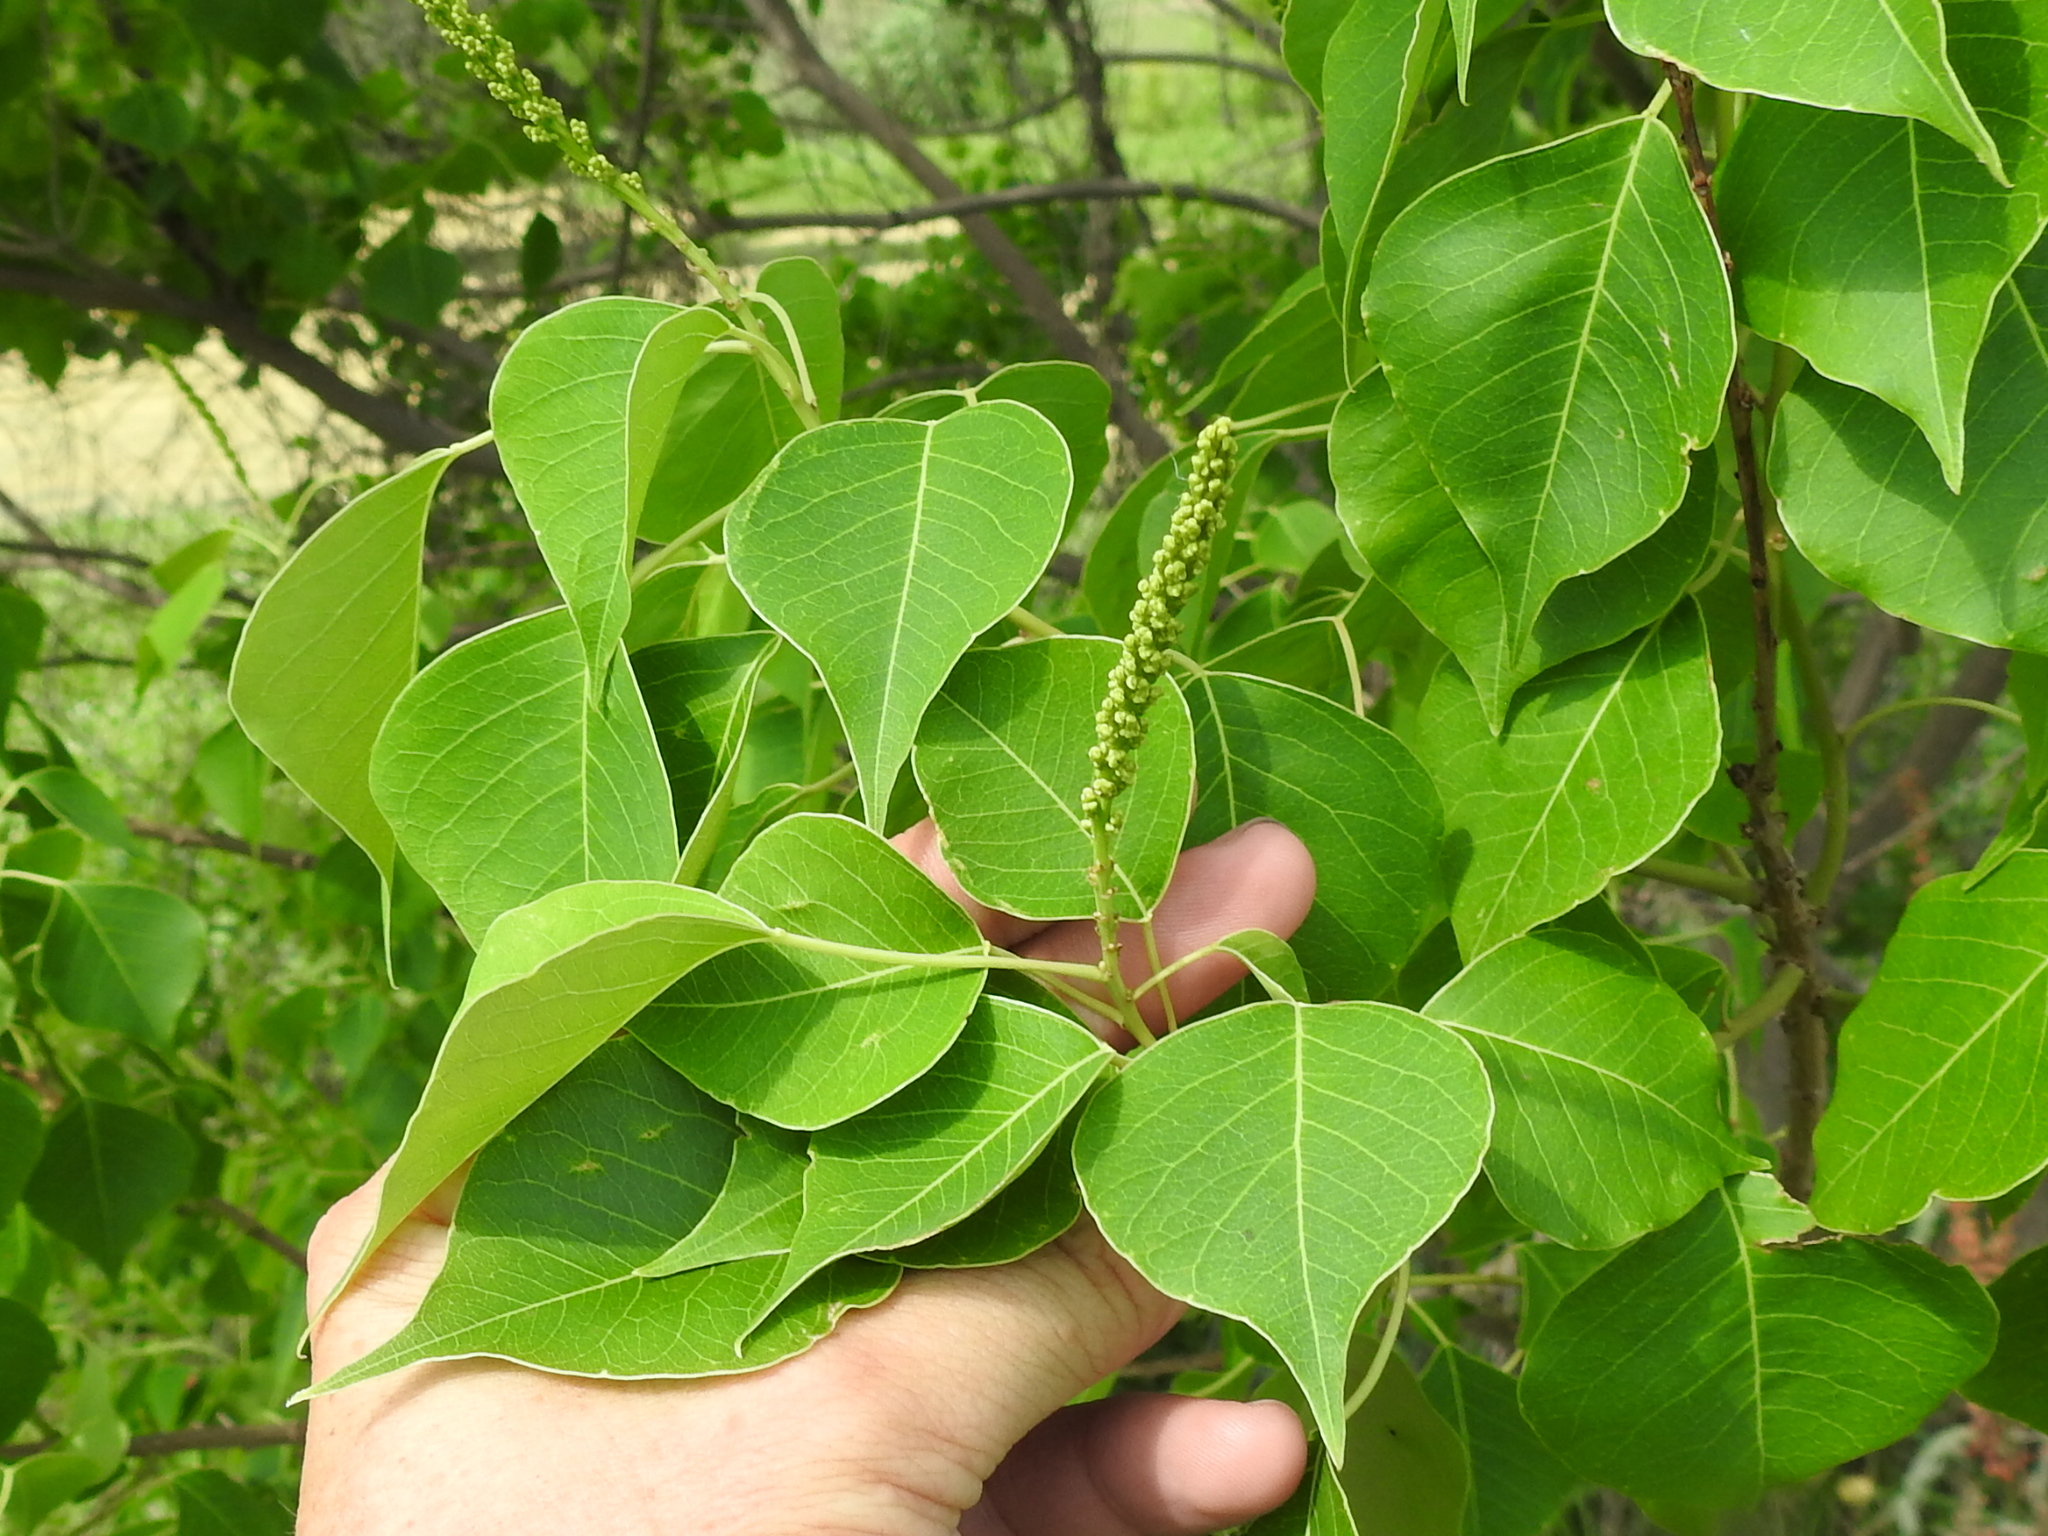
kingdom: Plantae
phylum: Tracheophyta
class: Magnoliopsida
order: Malpighiales
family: Euphorbiaceae
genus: Triadica
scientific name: Triadica sebifera
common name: Chinese tallow
